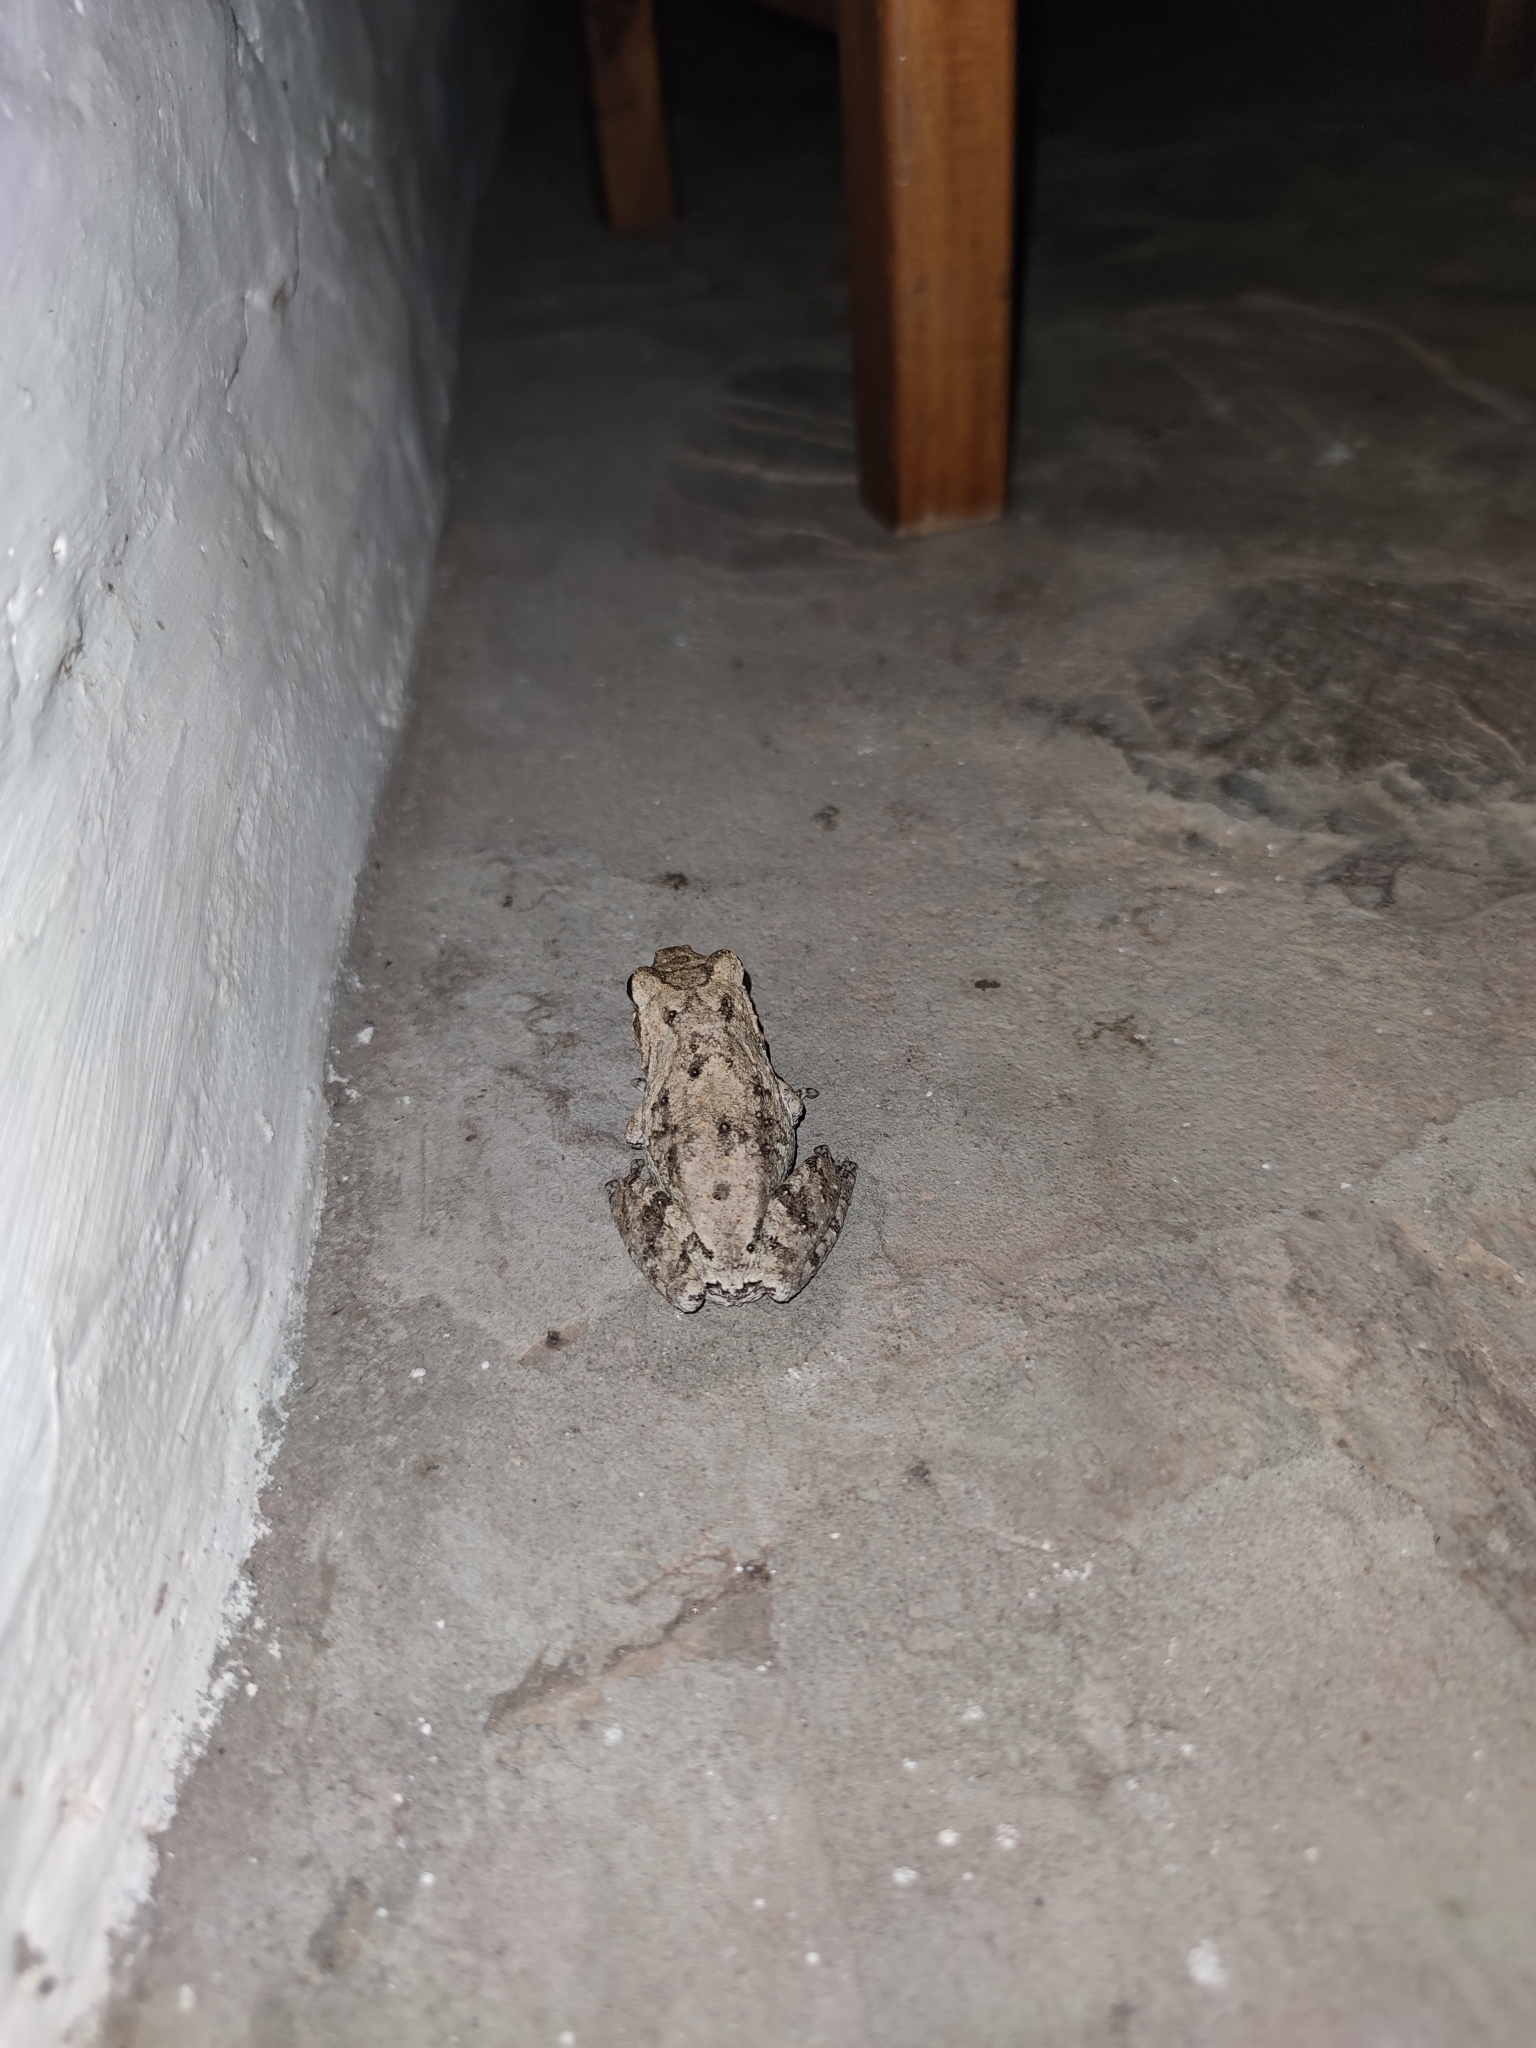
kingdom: Animalia
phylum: Chordata
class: Amphibia
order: Anura
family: Rhacophoridae
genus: Chiromantis
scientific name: Chiromantis xerampelina
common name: African gray treefrog
